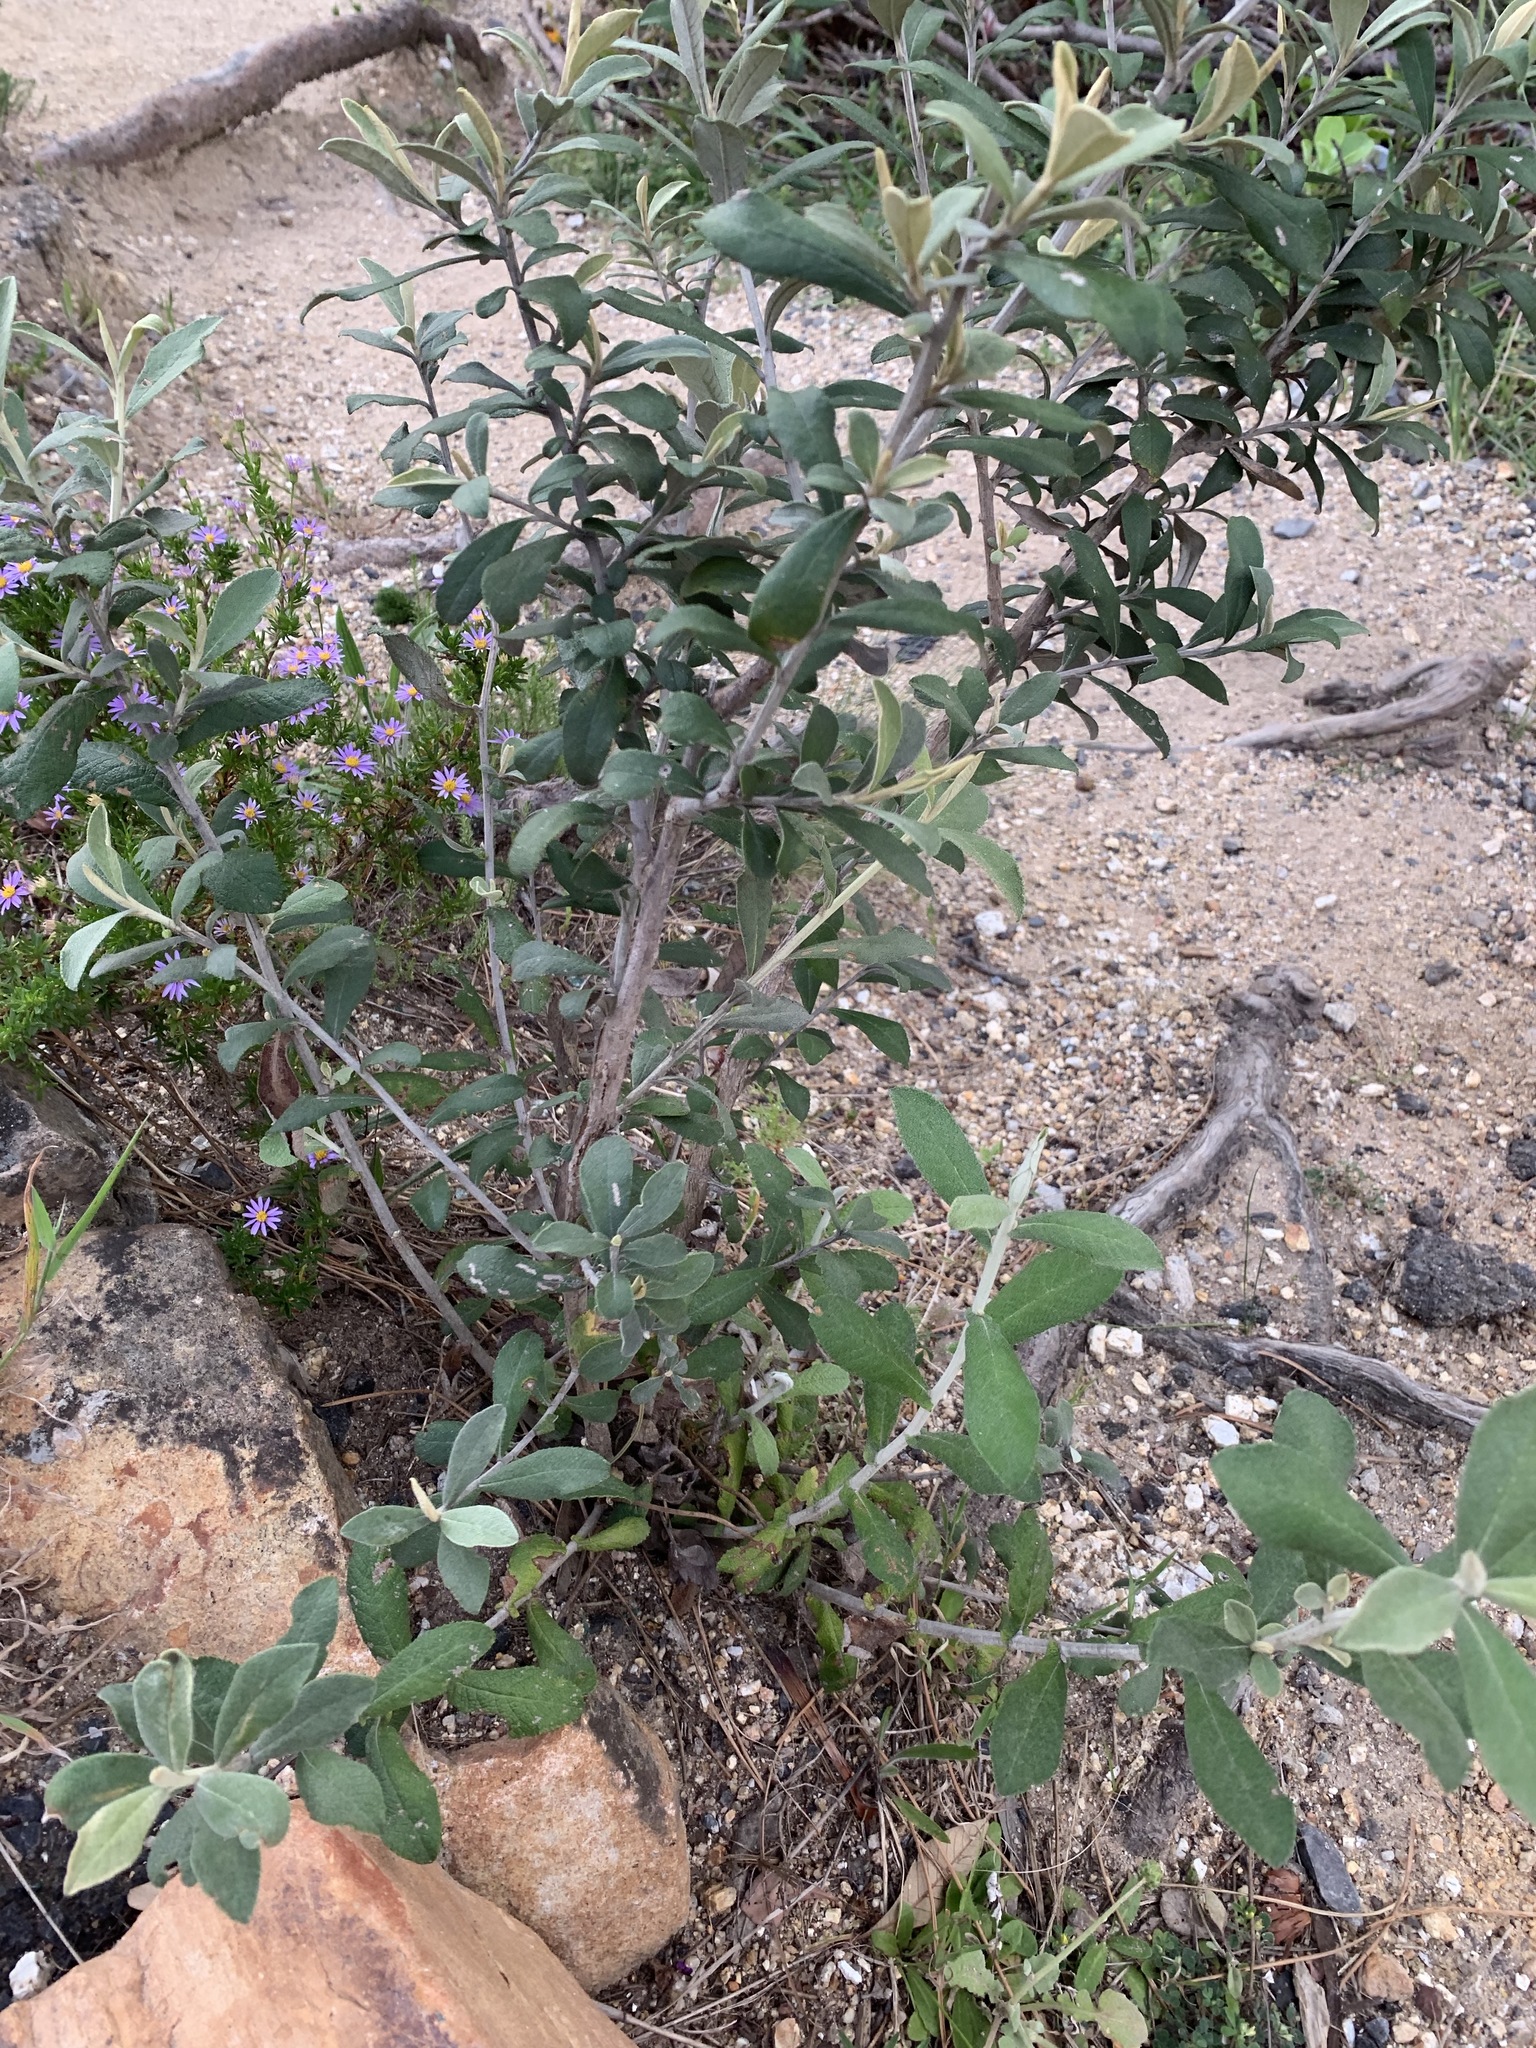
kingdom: Plantae
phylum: Tracheophyta
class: Magnoliopsida
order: Asterales
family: Asteraceae
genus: Tarchonanthus
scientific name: Tarchonanthus littoralis
